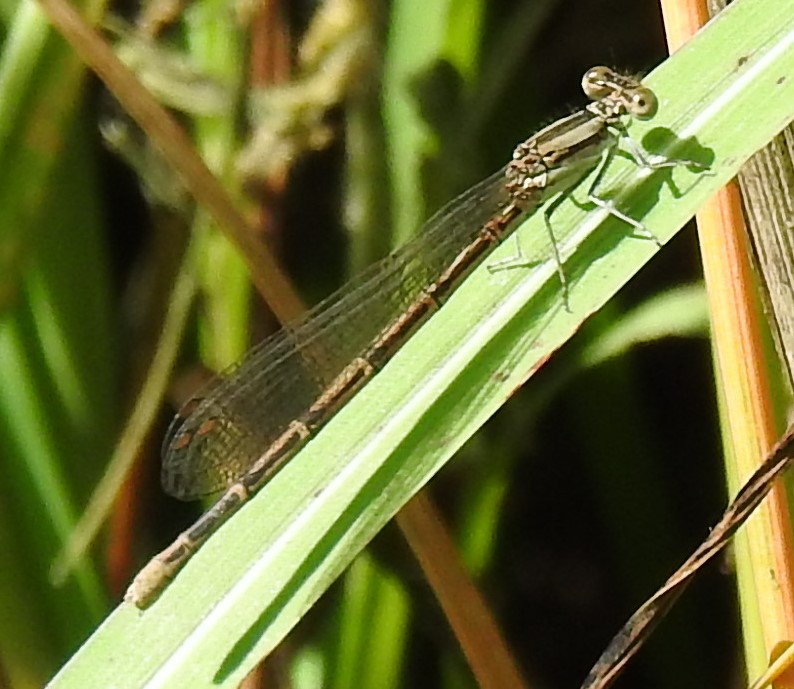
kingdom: Animalia
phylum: Arthropoda
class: Insecta
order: Odonata
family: Coenagrionidae
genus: Argia
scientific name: Argia fumipennis
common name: Variable dancer
